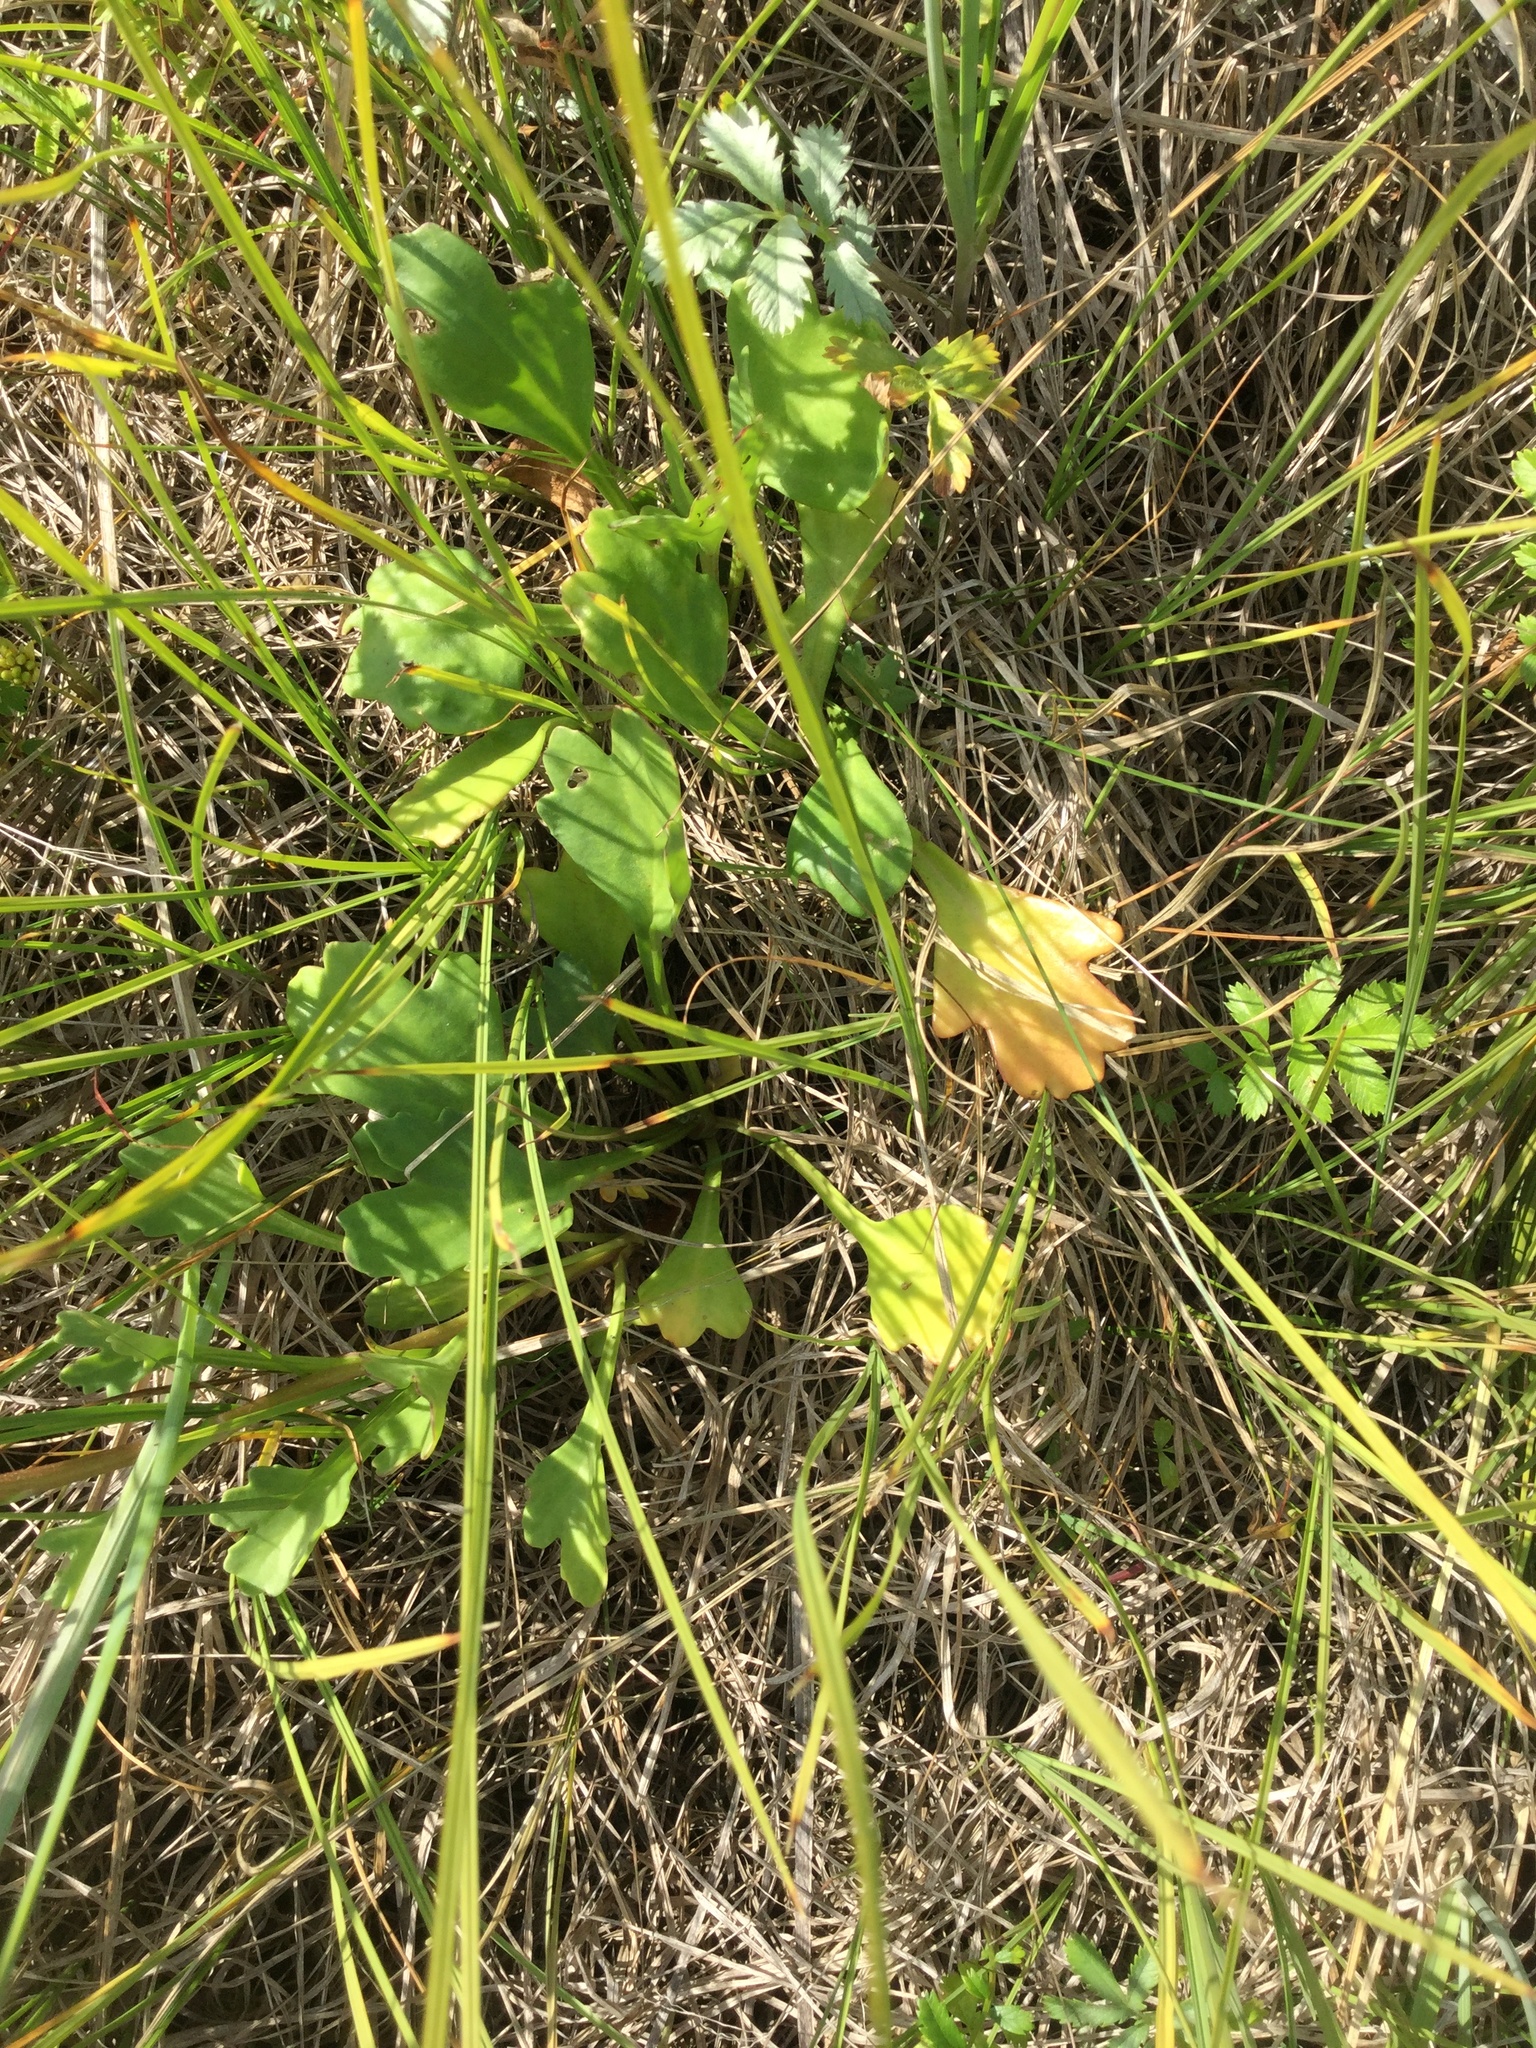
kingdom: Plantae
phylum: Tracheophyta
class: Magnoliopsida
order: Asterales
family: Asteraceae
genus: Arctanthemum
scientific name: Arctanthemum arcticum
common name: Arctic daisy
